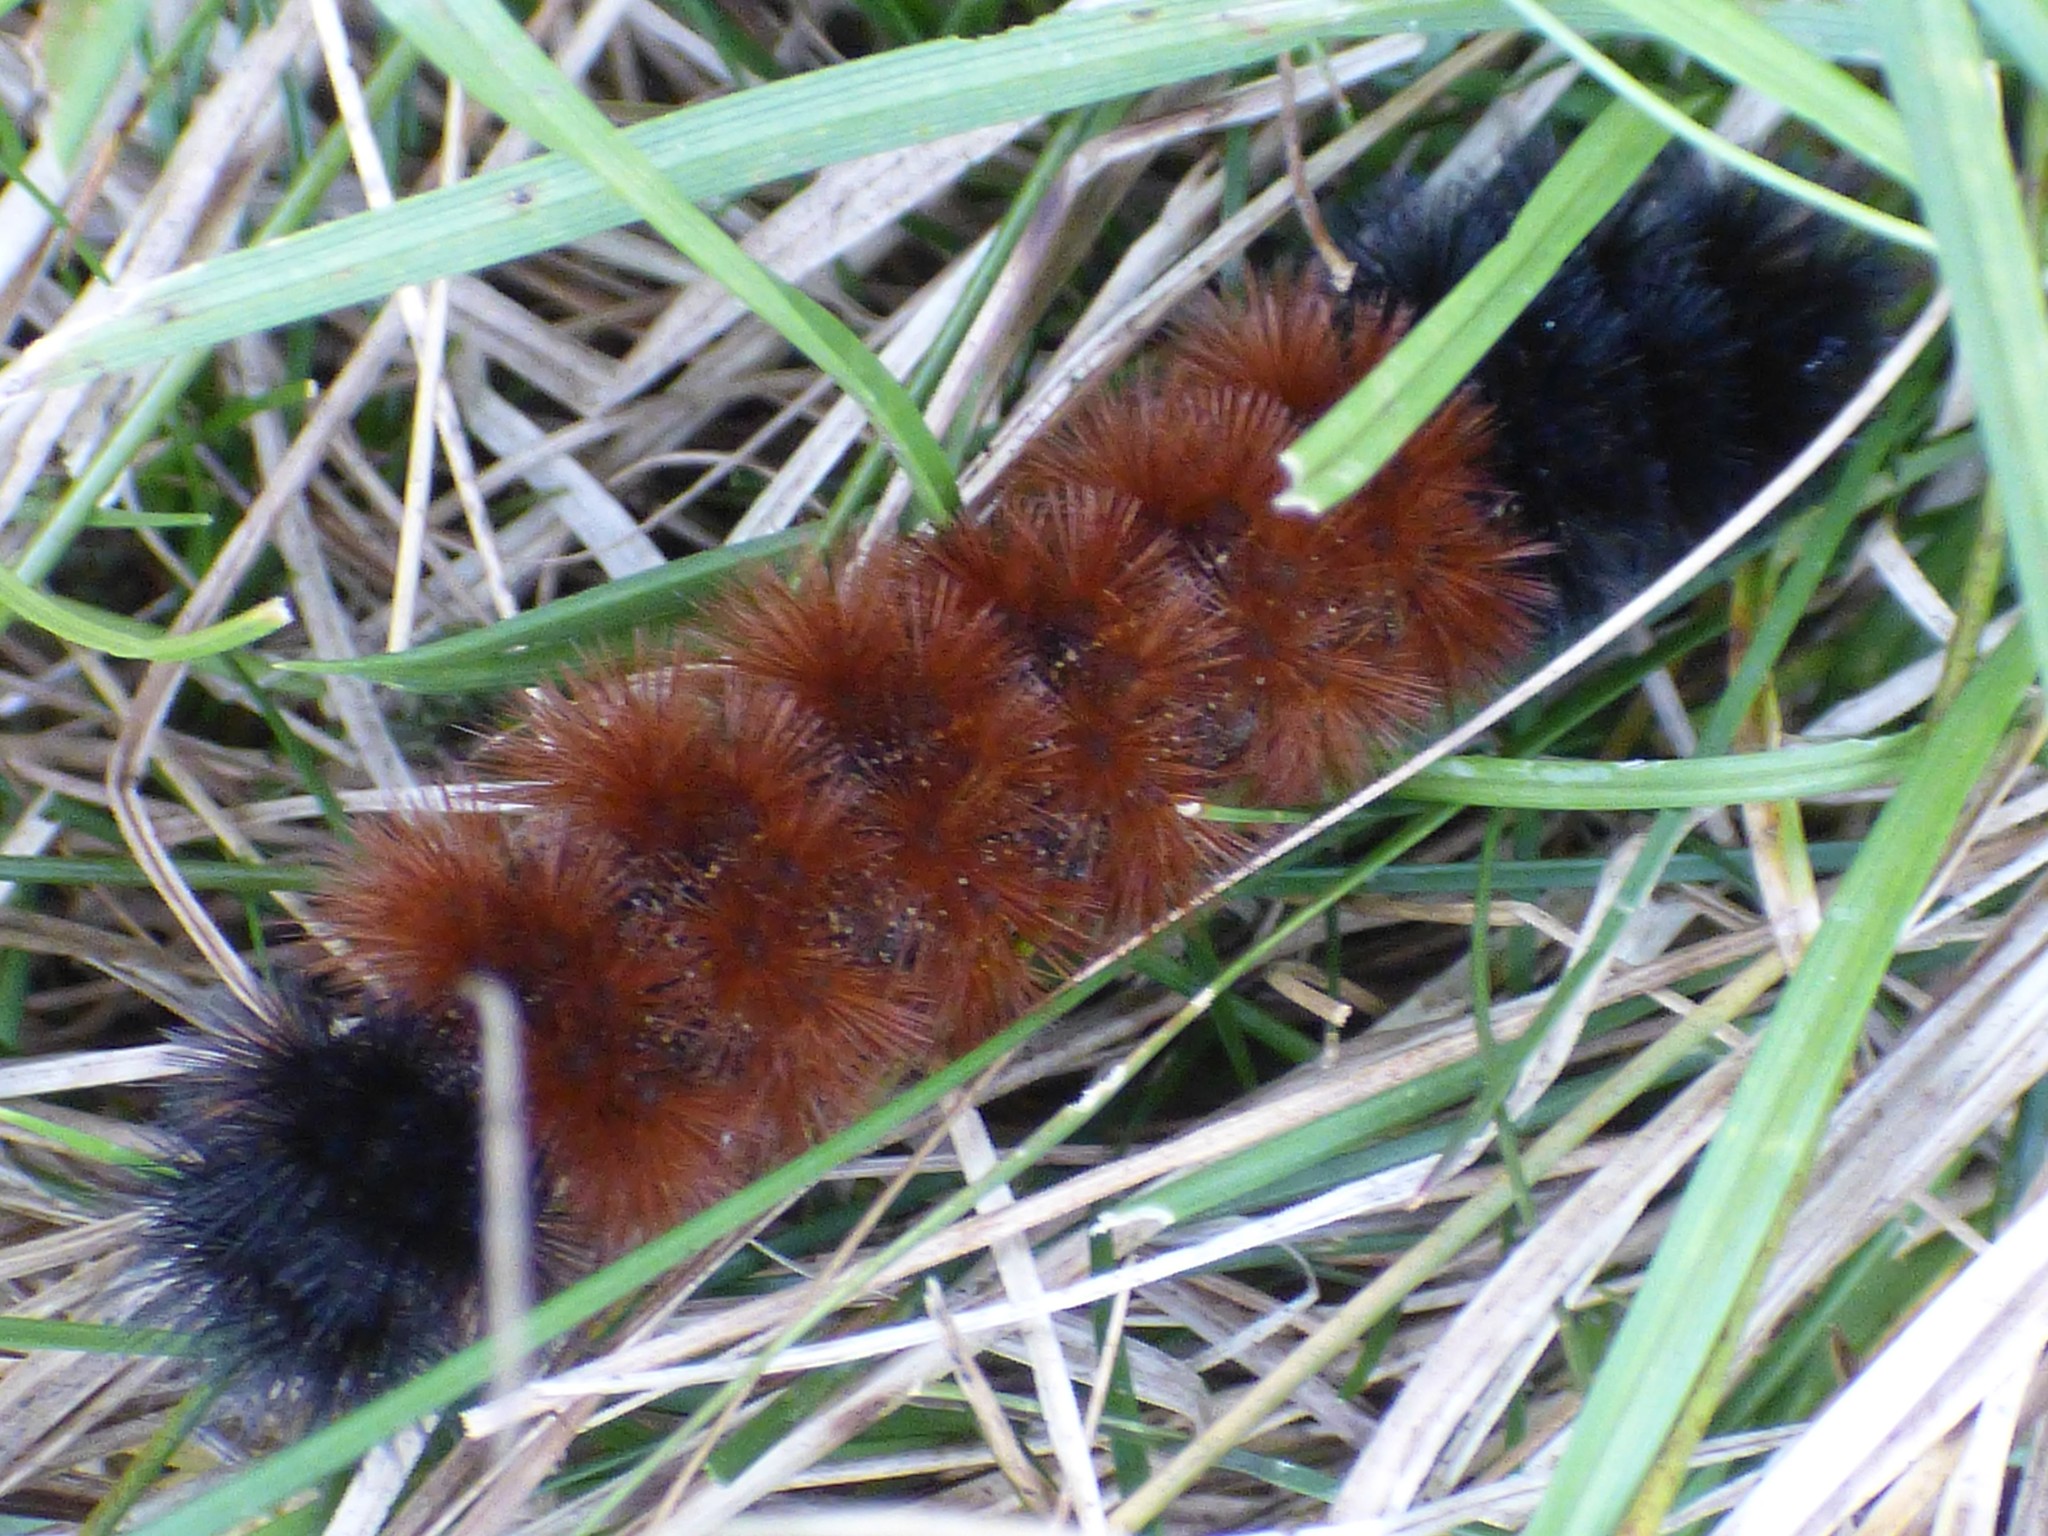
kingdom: Animalia
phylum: Arthropoda
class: Insecta
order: Lepidoptera
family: Erebidae
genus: Pyrrharctia
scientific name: Pyrrharctia isabella
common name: Isabella tiger moth
